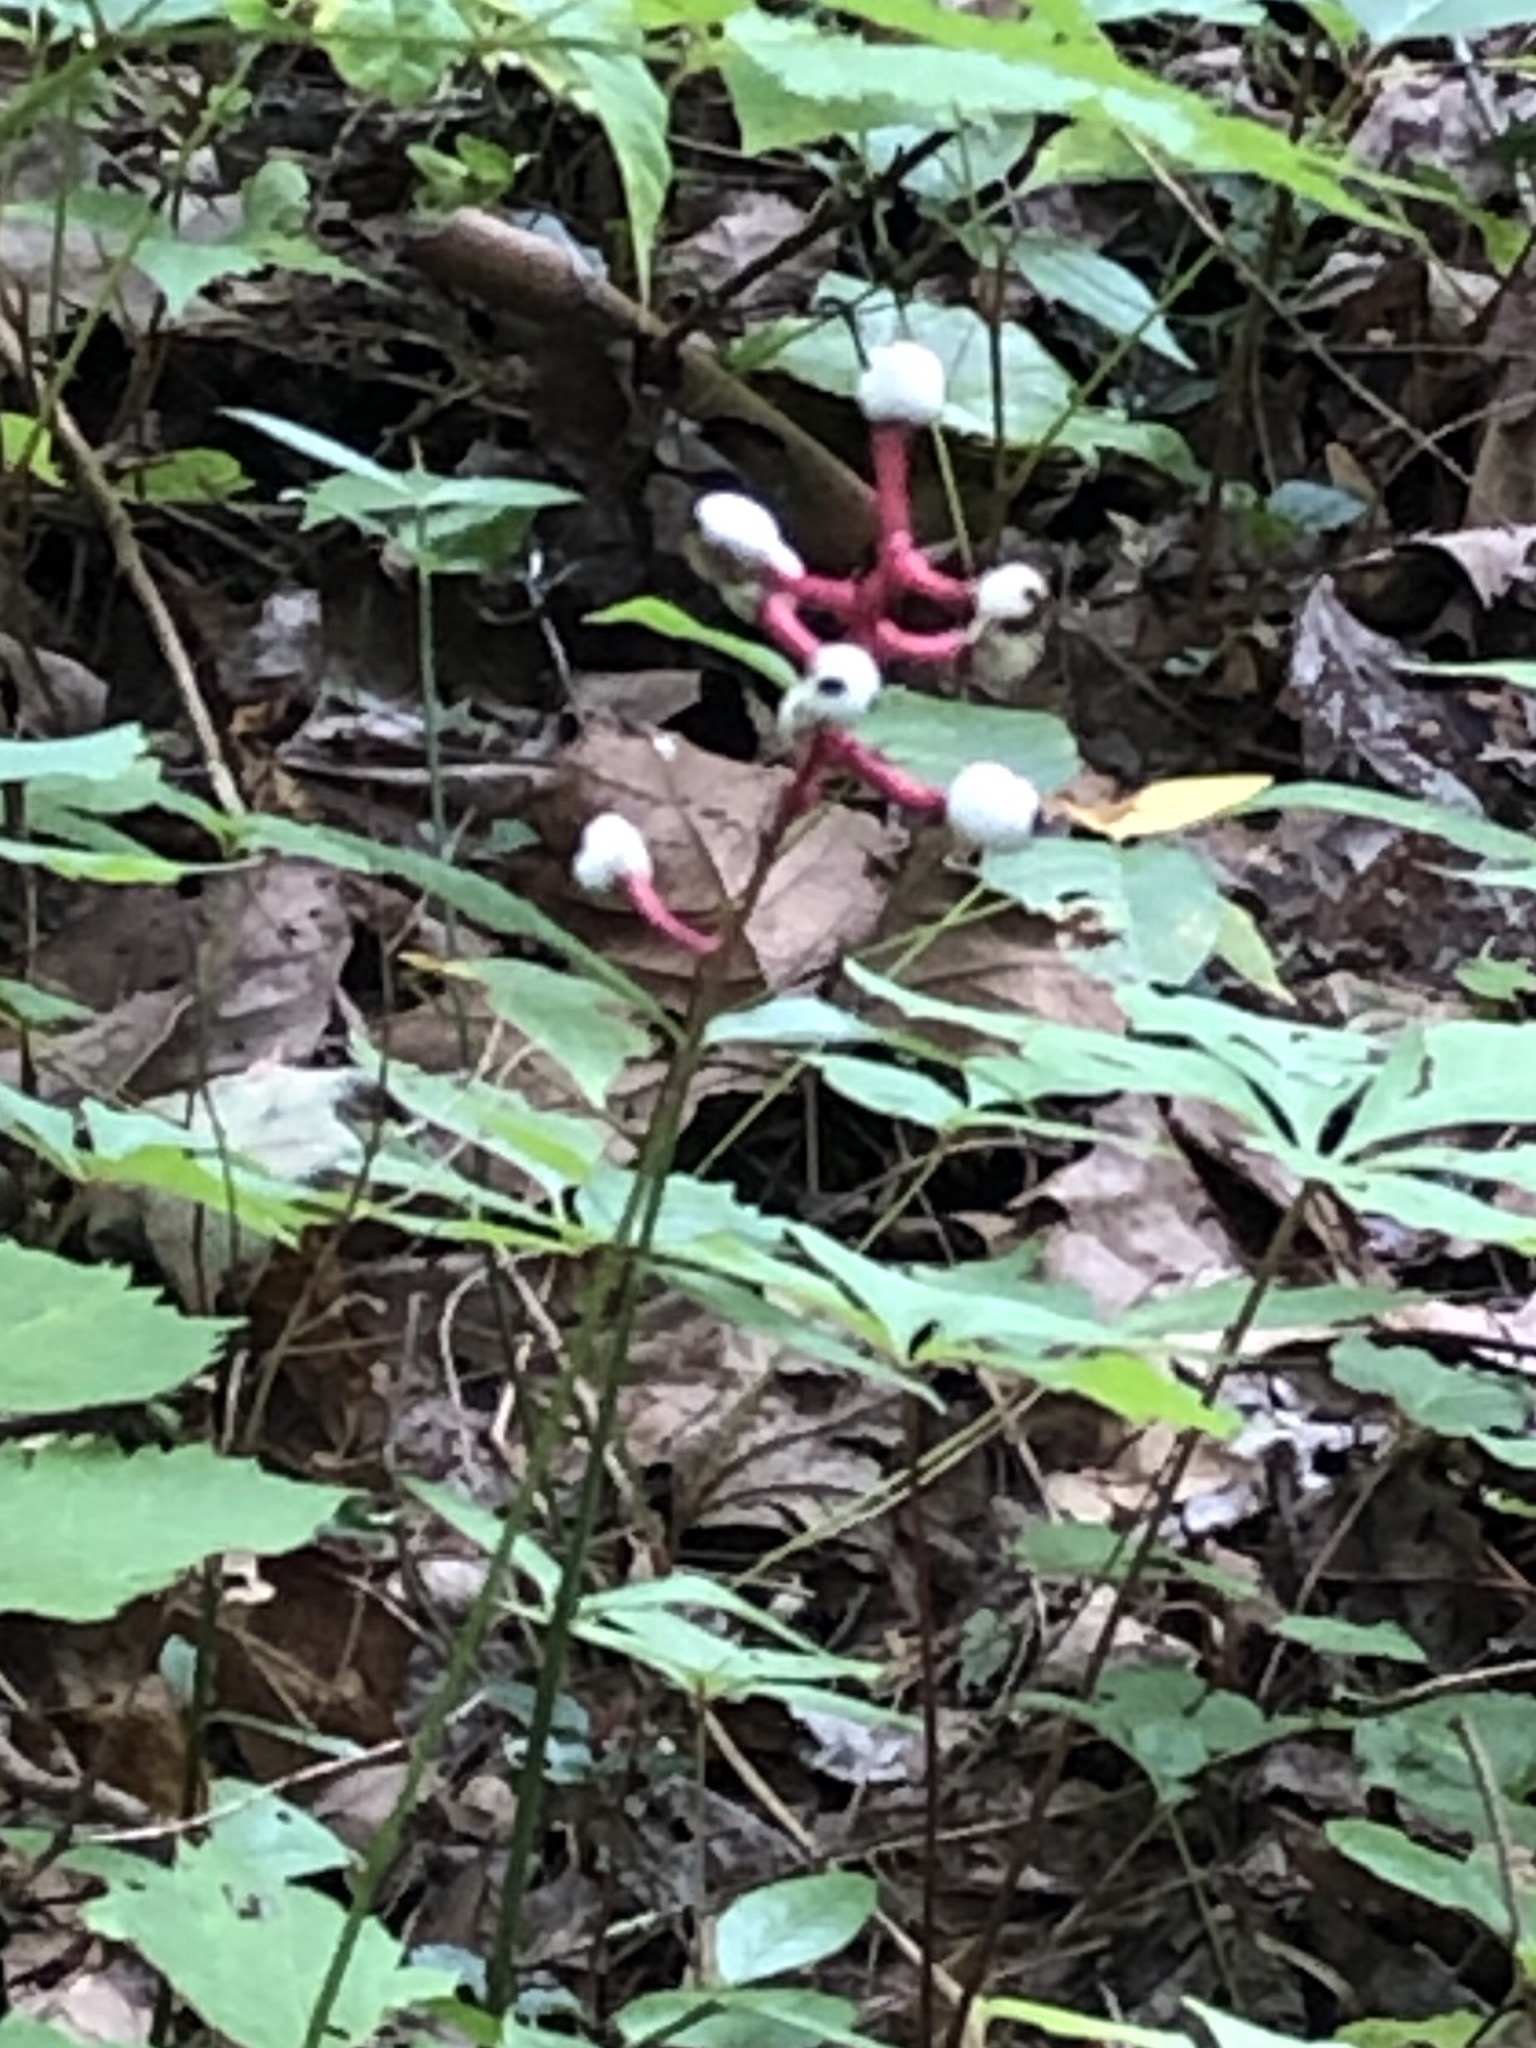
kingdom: Plantae
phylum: Tracheophyta
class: Magnoliopsida
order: Ranunculales
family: Ranunculaceae
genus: Actaea
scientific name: Actaea pachypoda
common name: Doll's-eyes
